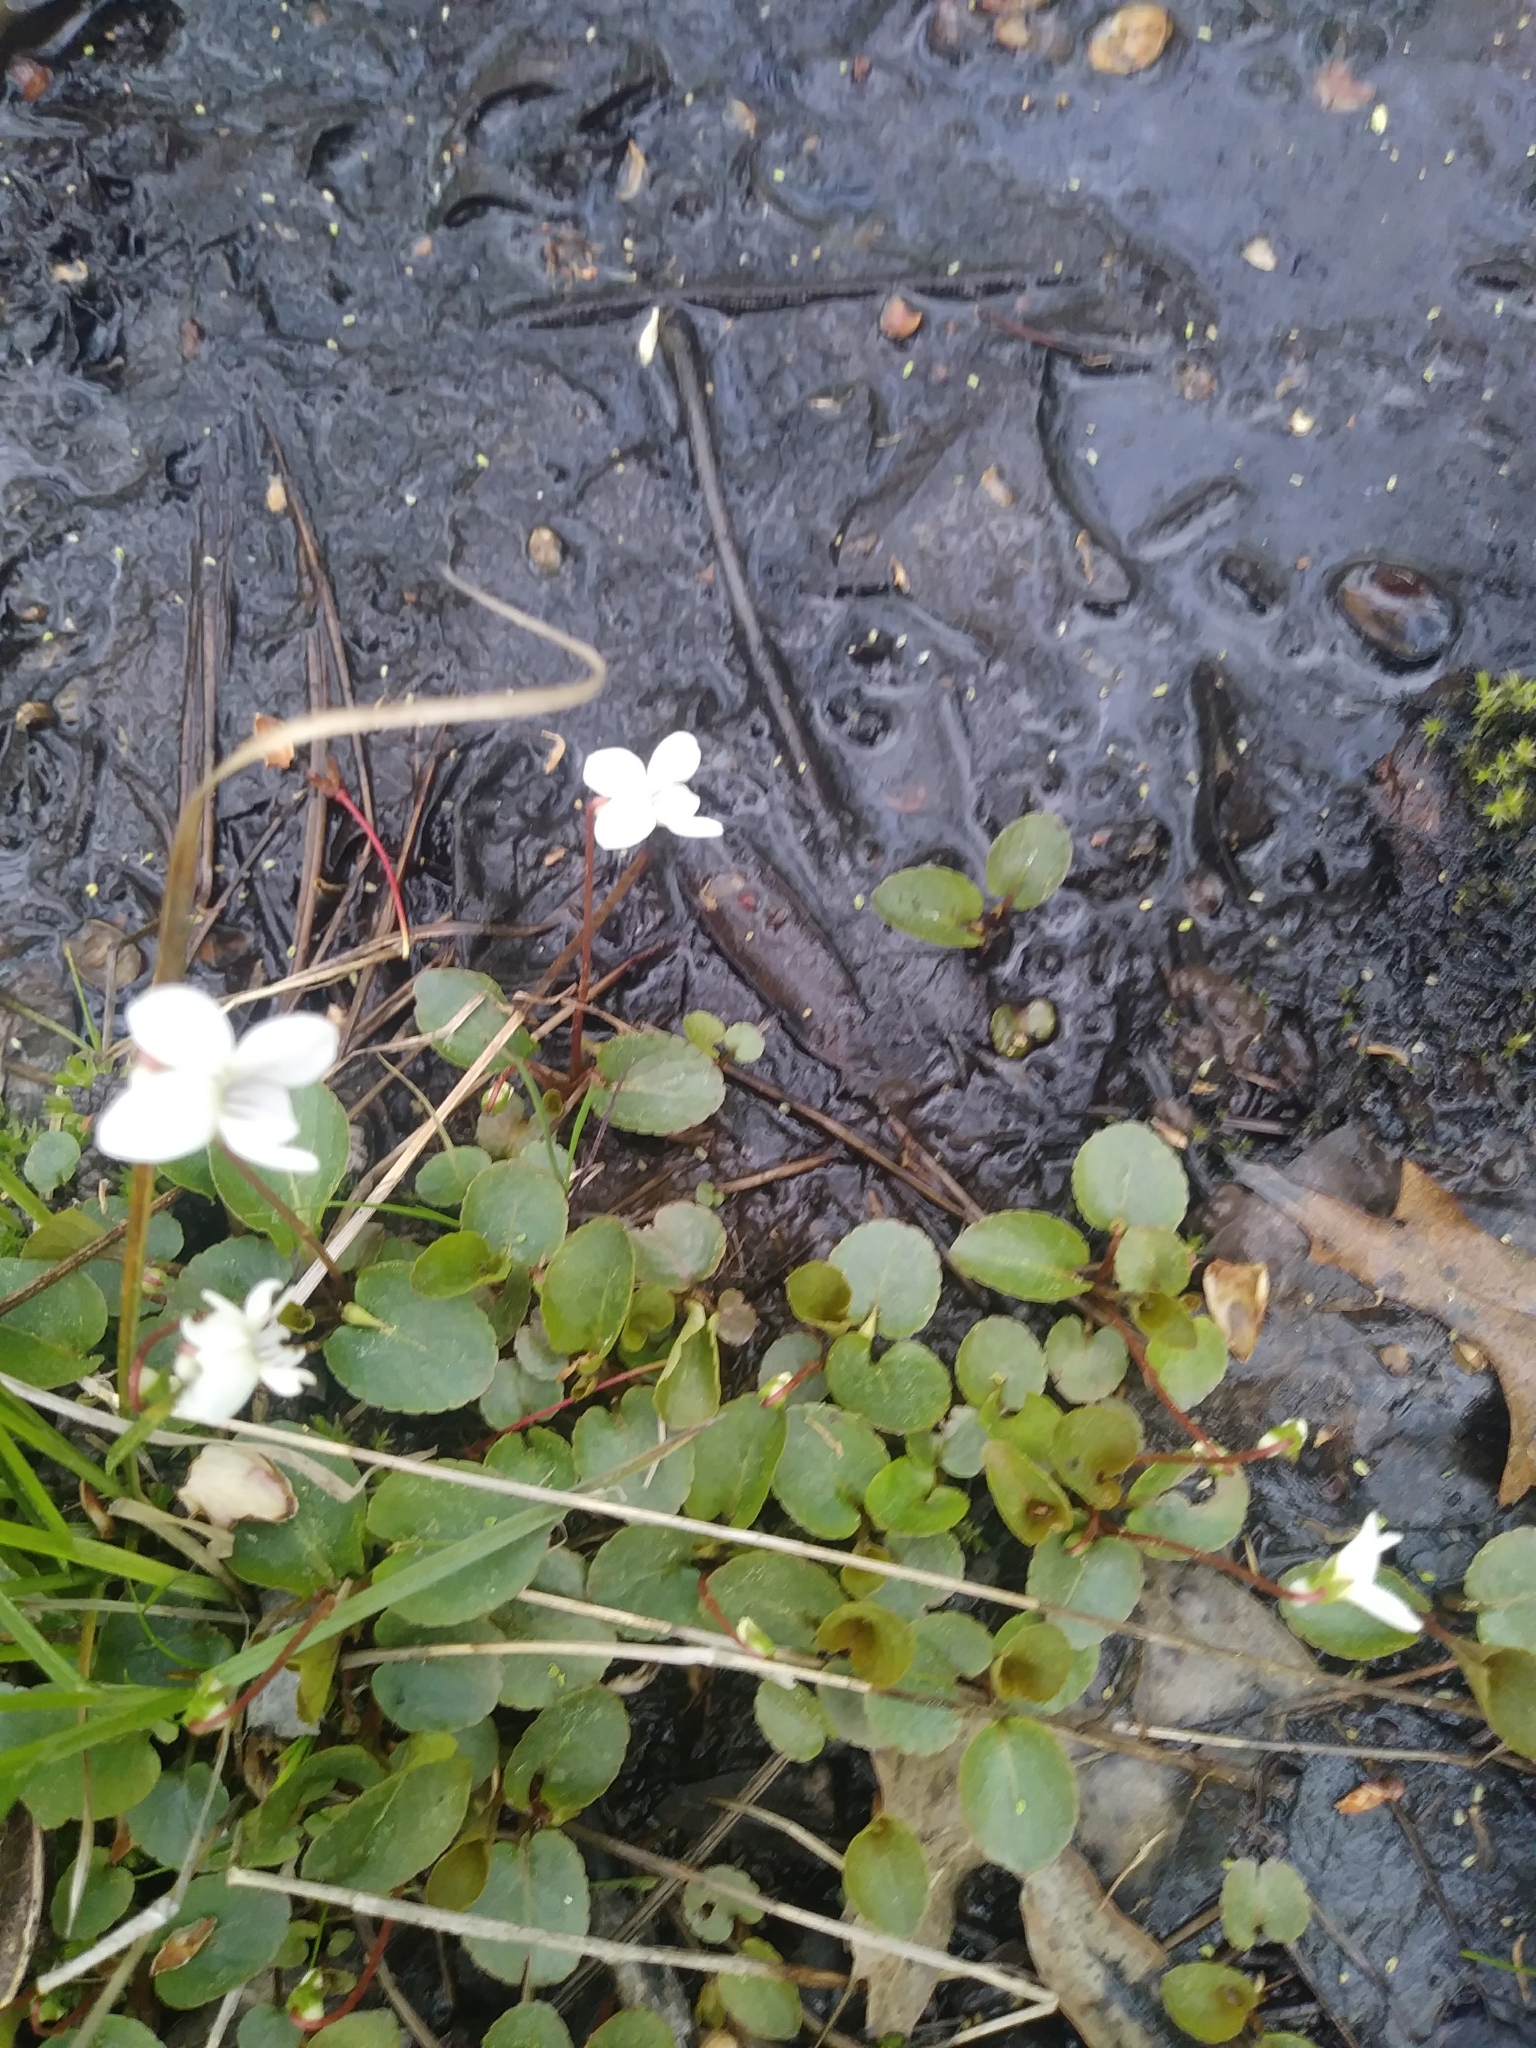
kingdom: Plantae
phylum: Tracheophyta
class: Magnoliopsida
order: Malpighiales
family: Violaceae
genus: Viola
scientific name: Viola minuscula
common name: Northern white violet
